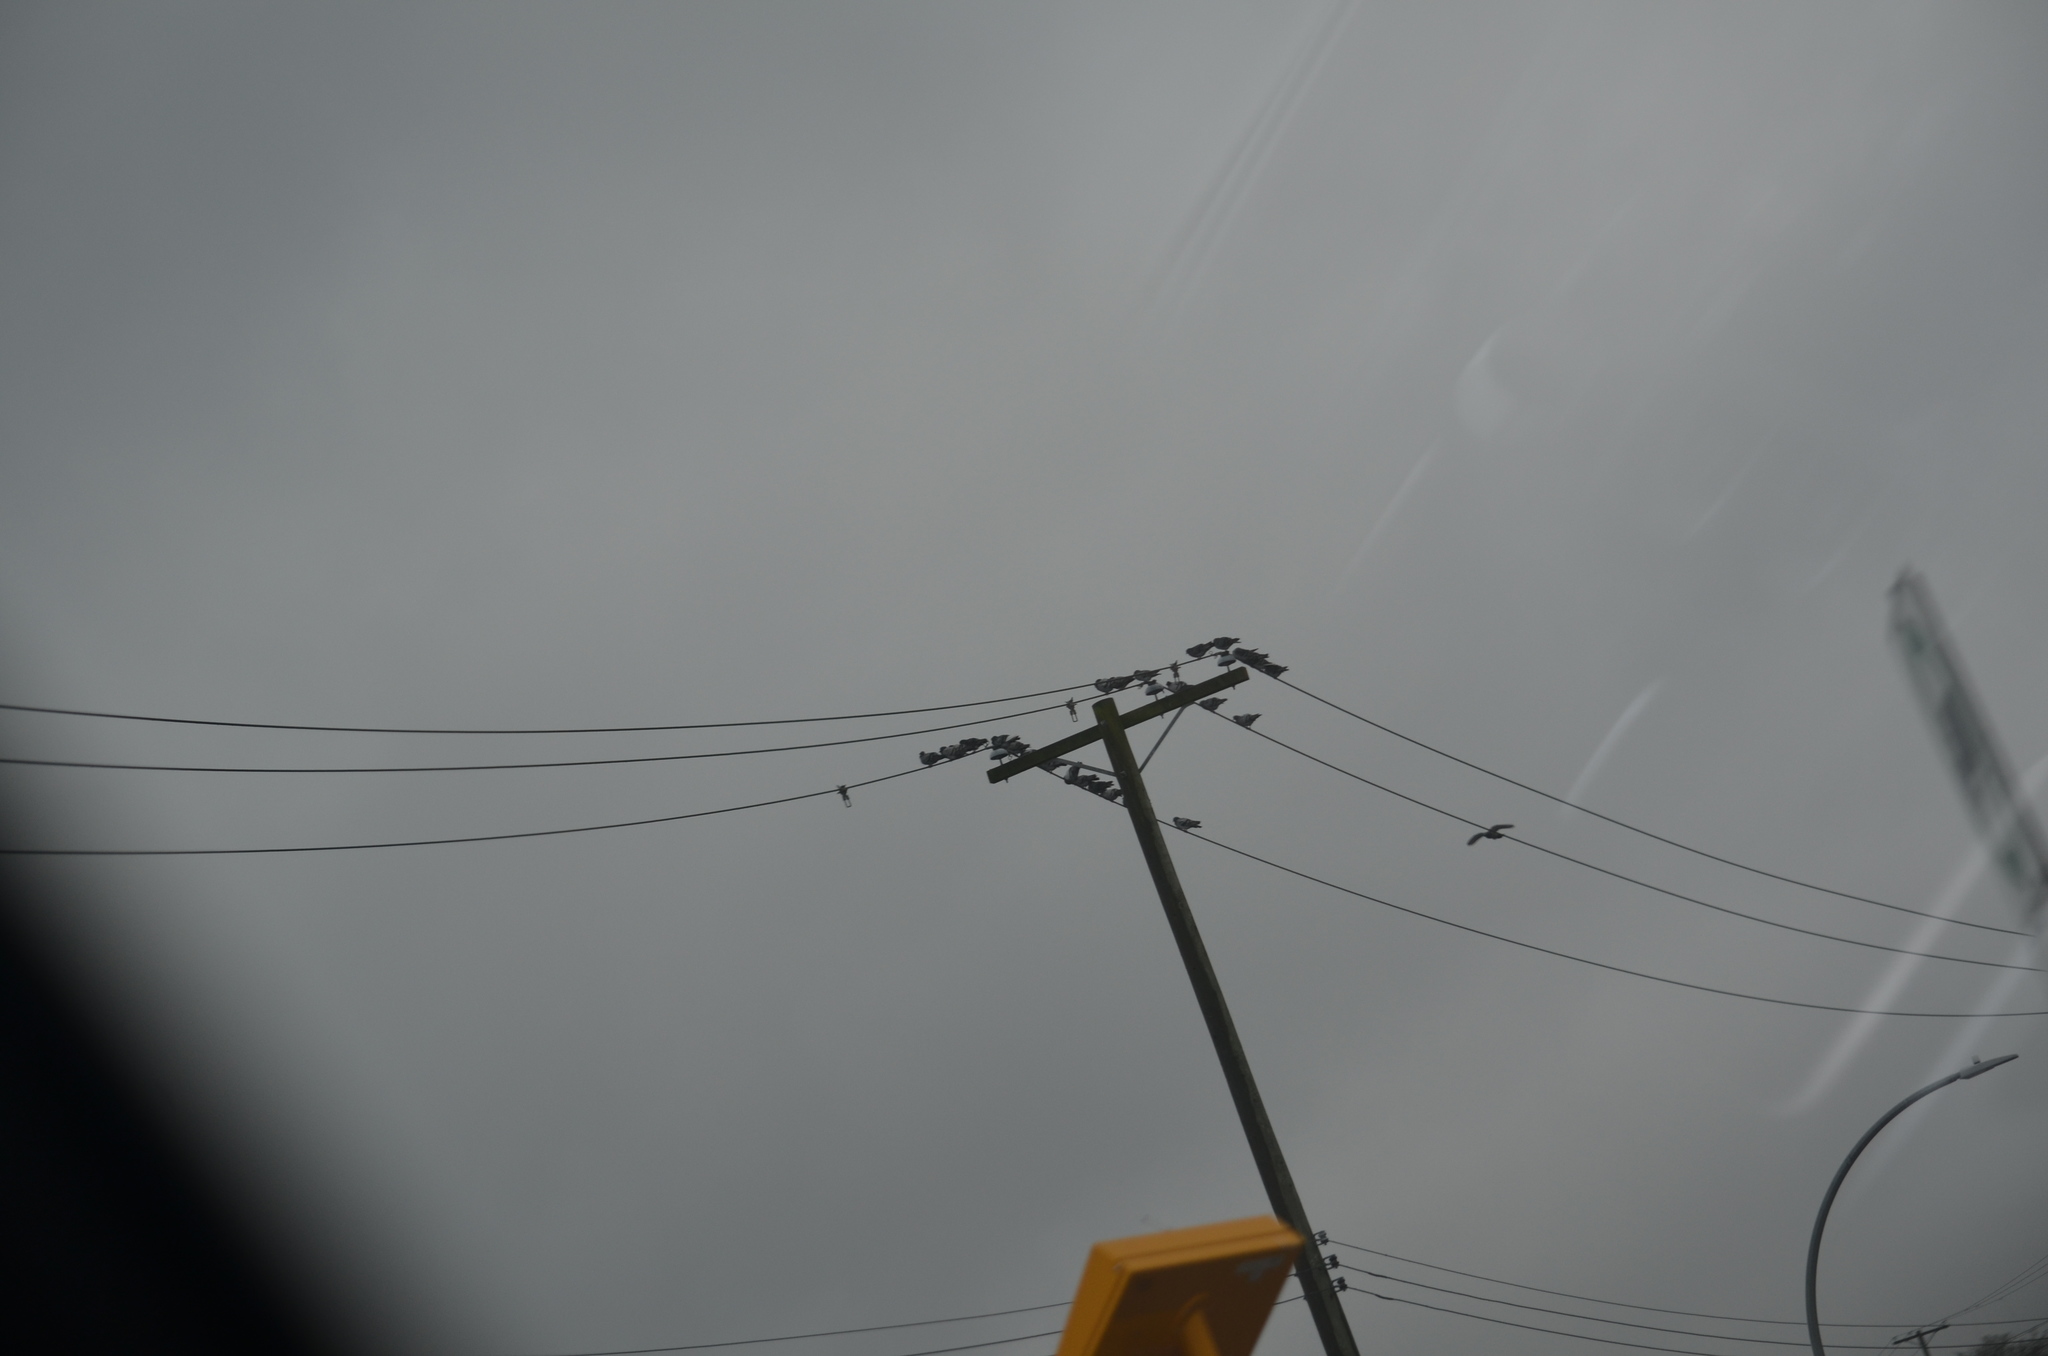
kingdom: Animalia
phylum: Chordata
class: Aves
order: Columbiformes
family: Columbidae
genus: Columba
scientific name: Columba livia
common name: Rock pigeon
